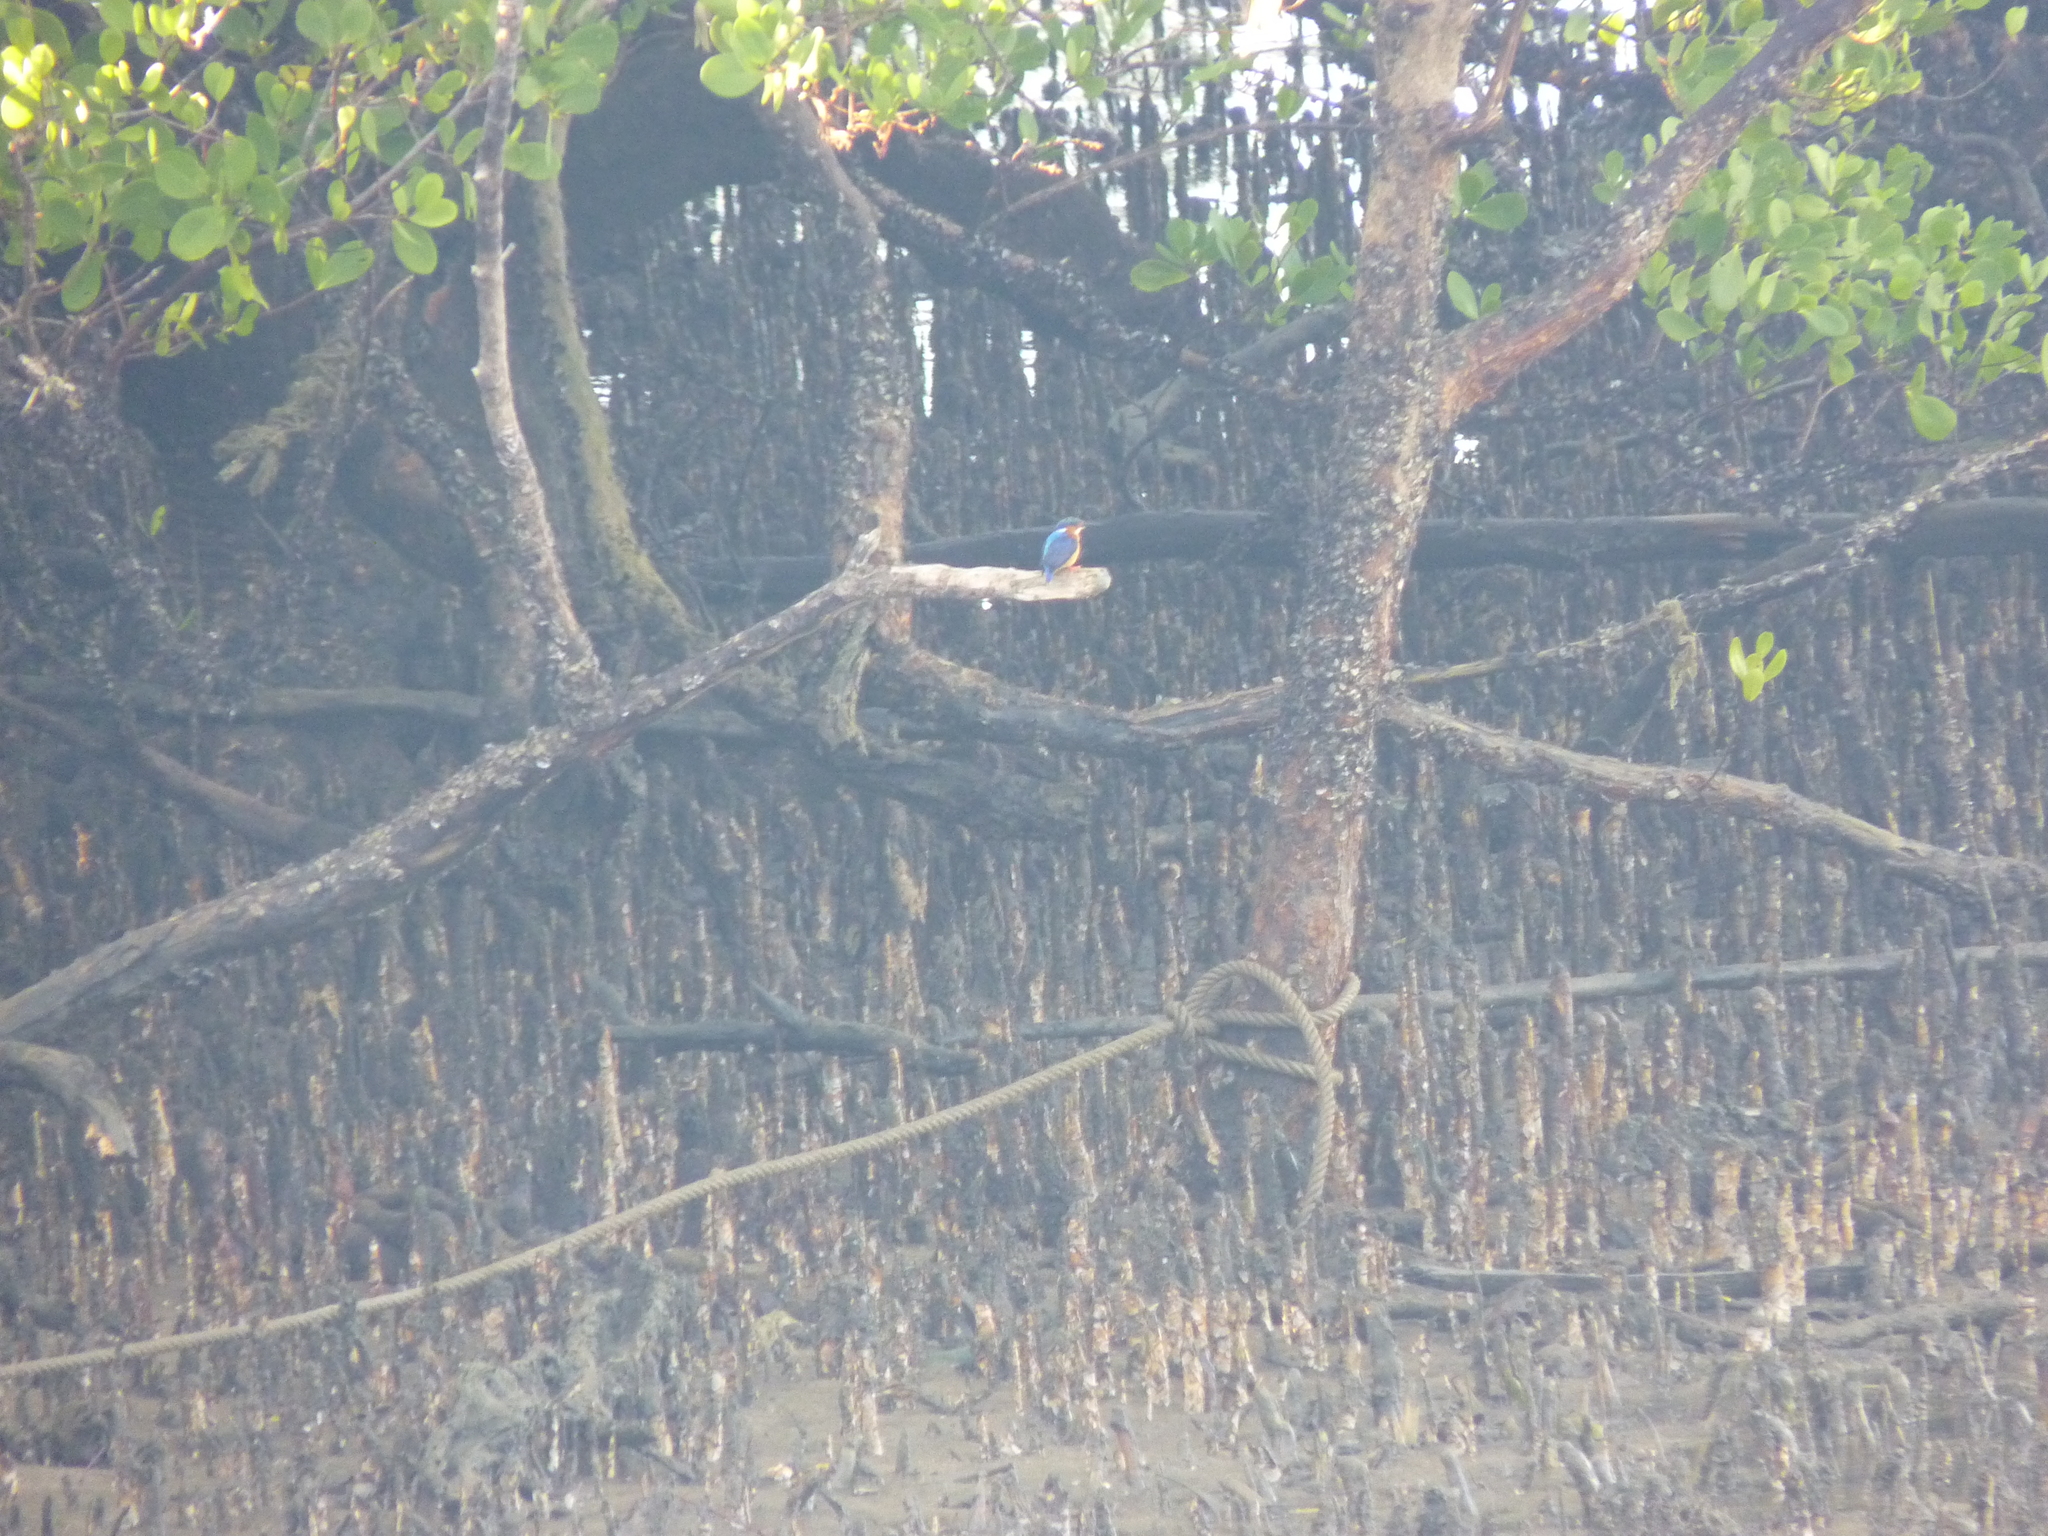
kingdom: Animalia
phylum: Chordata
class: Aves
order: Coraciiformes
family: Alcedinidae
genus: Corythornis
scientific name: Corythornis vintsioides
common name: Malagasy kingfisher
